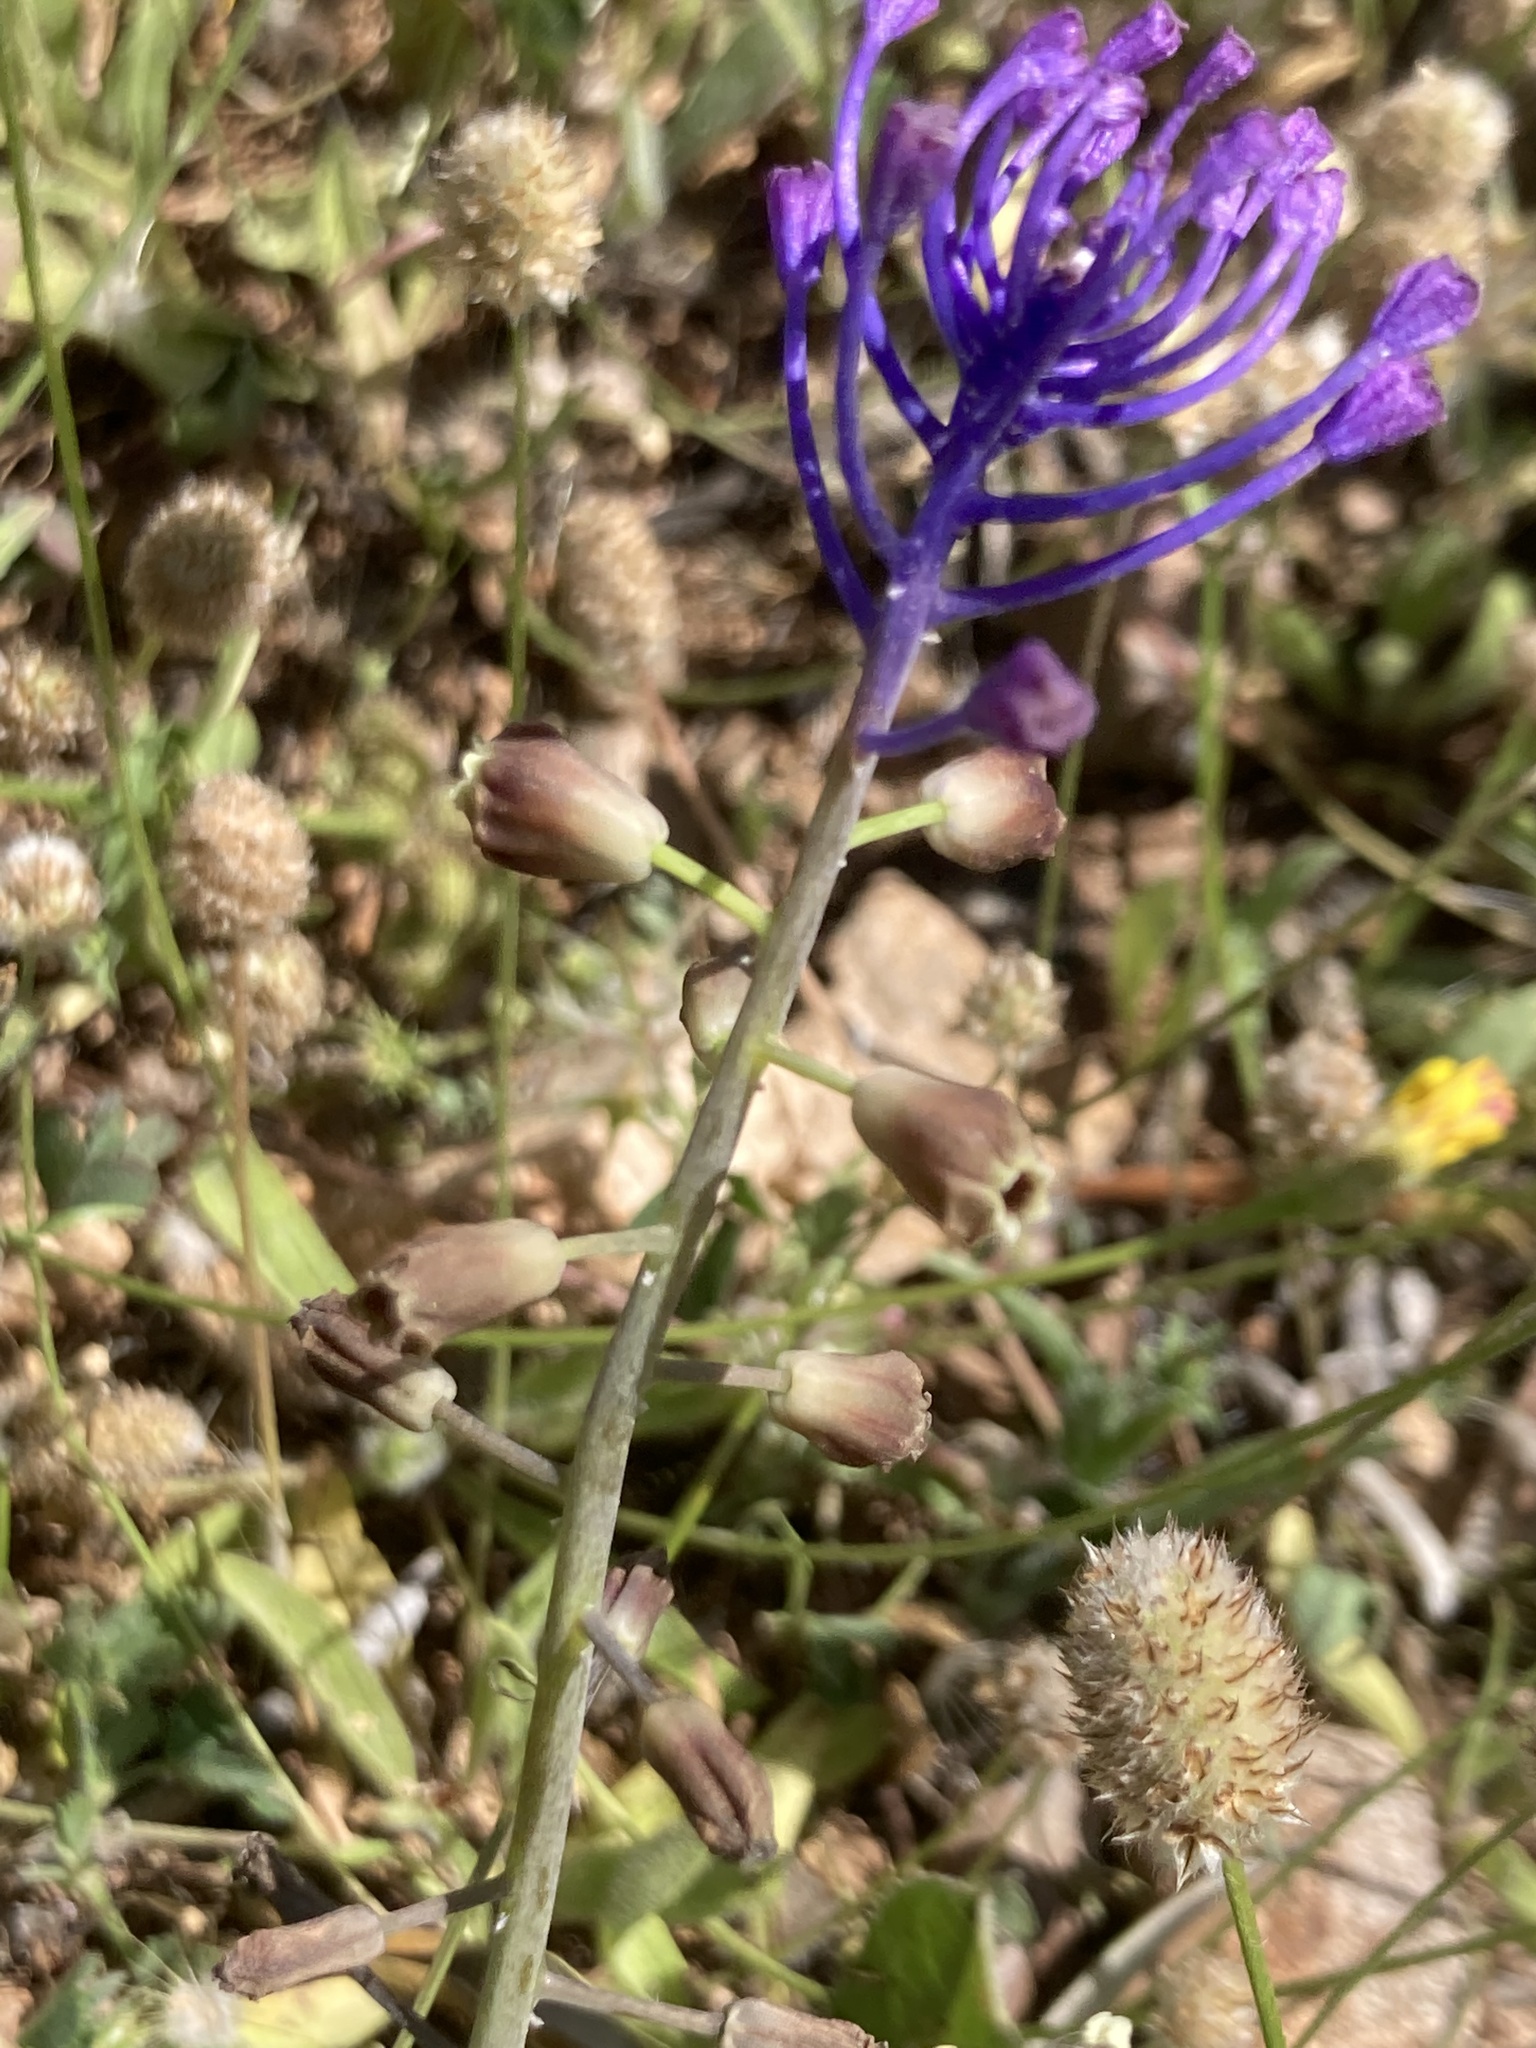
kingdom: Plantae
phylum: Tracheophyta
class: Liliopsida
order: Asparagales
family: Asparagaceae
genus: Muscari
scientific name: Muscari comosum
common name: Tassel hyacinth
